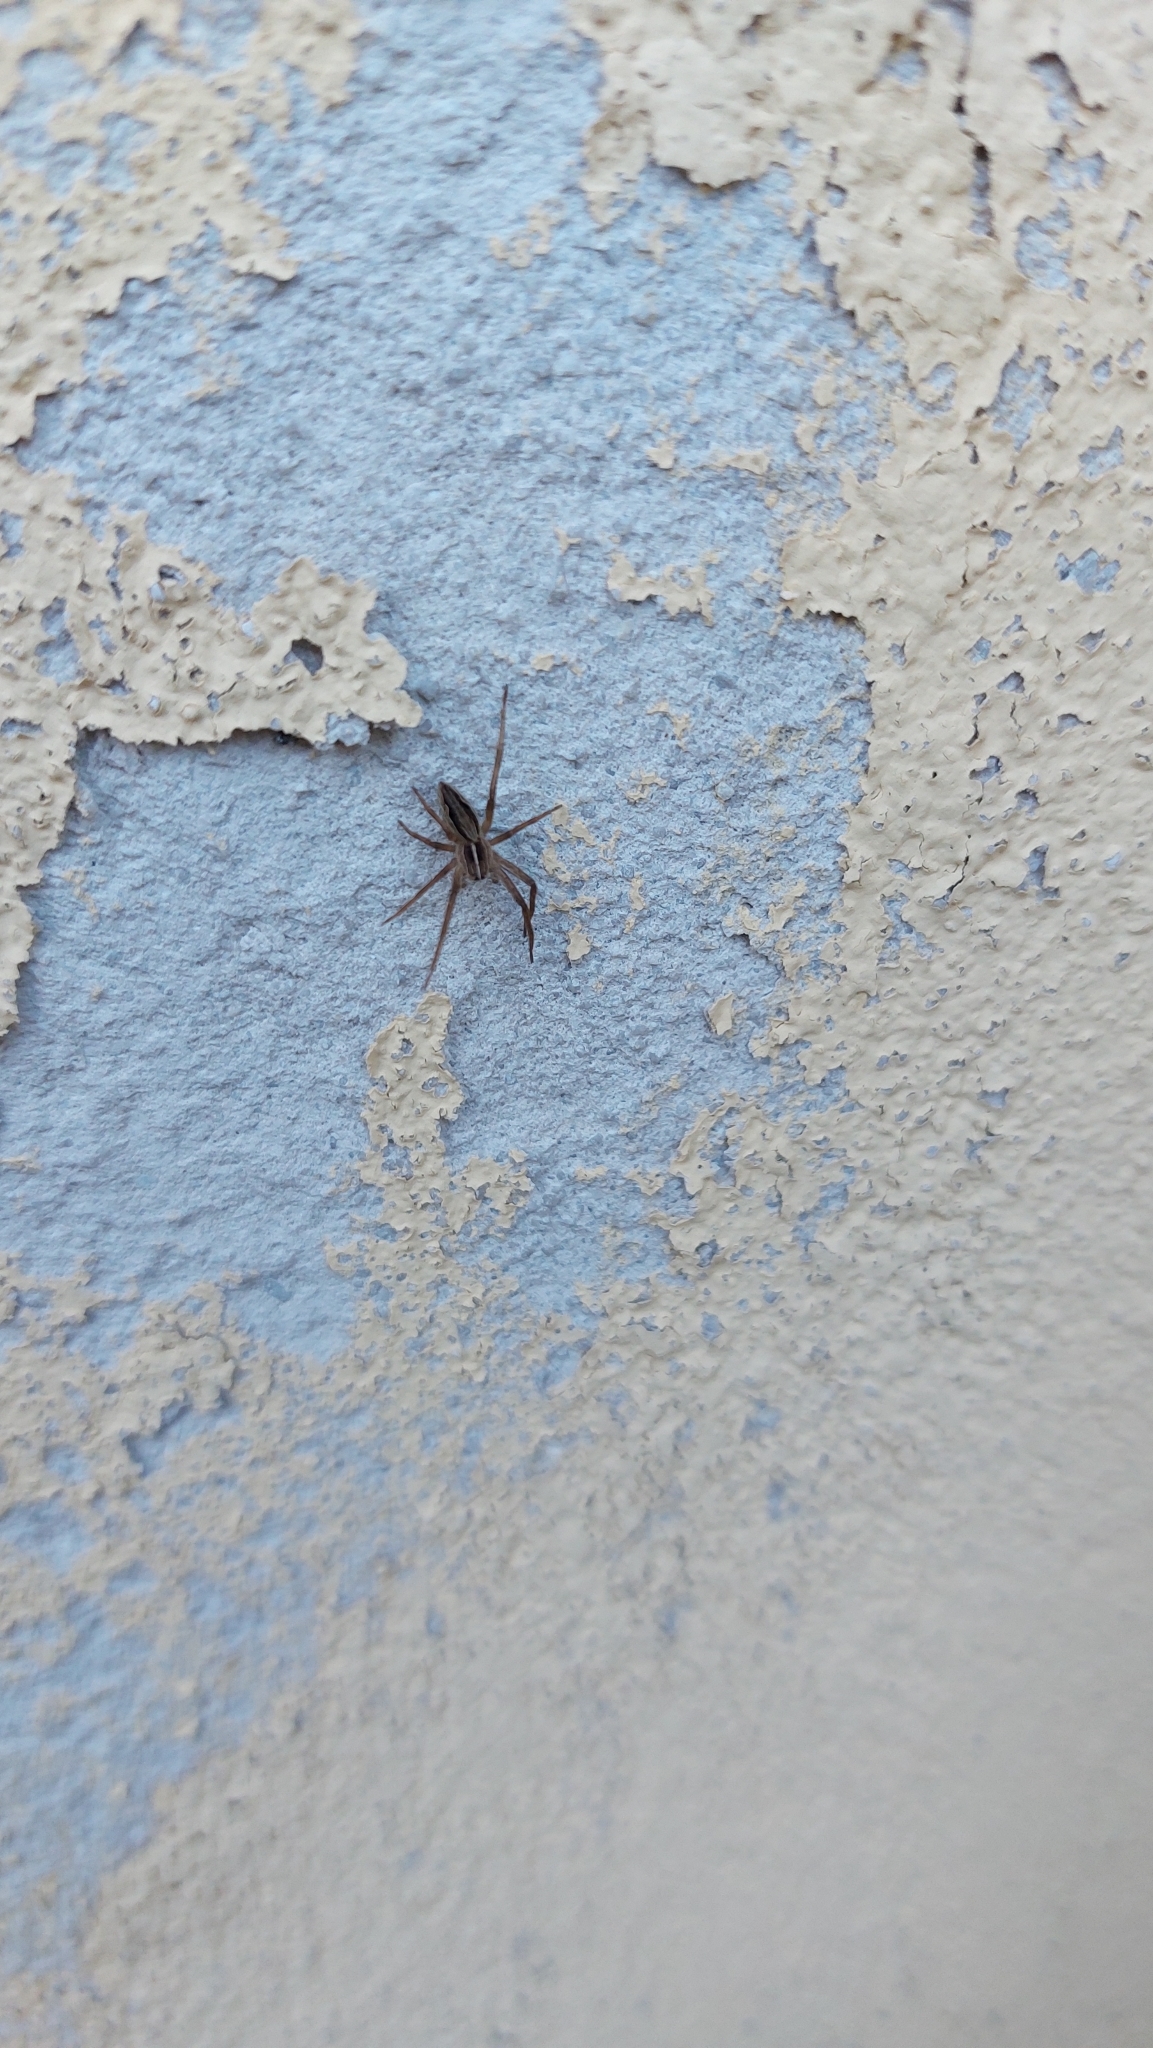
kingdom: Animalia
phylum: Arthropoda
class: Arachnida
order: Araneae
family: Pisauridae
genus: Pisaura
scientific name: Pisaura mirabilis
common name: Tent spider
